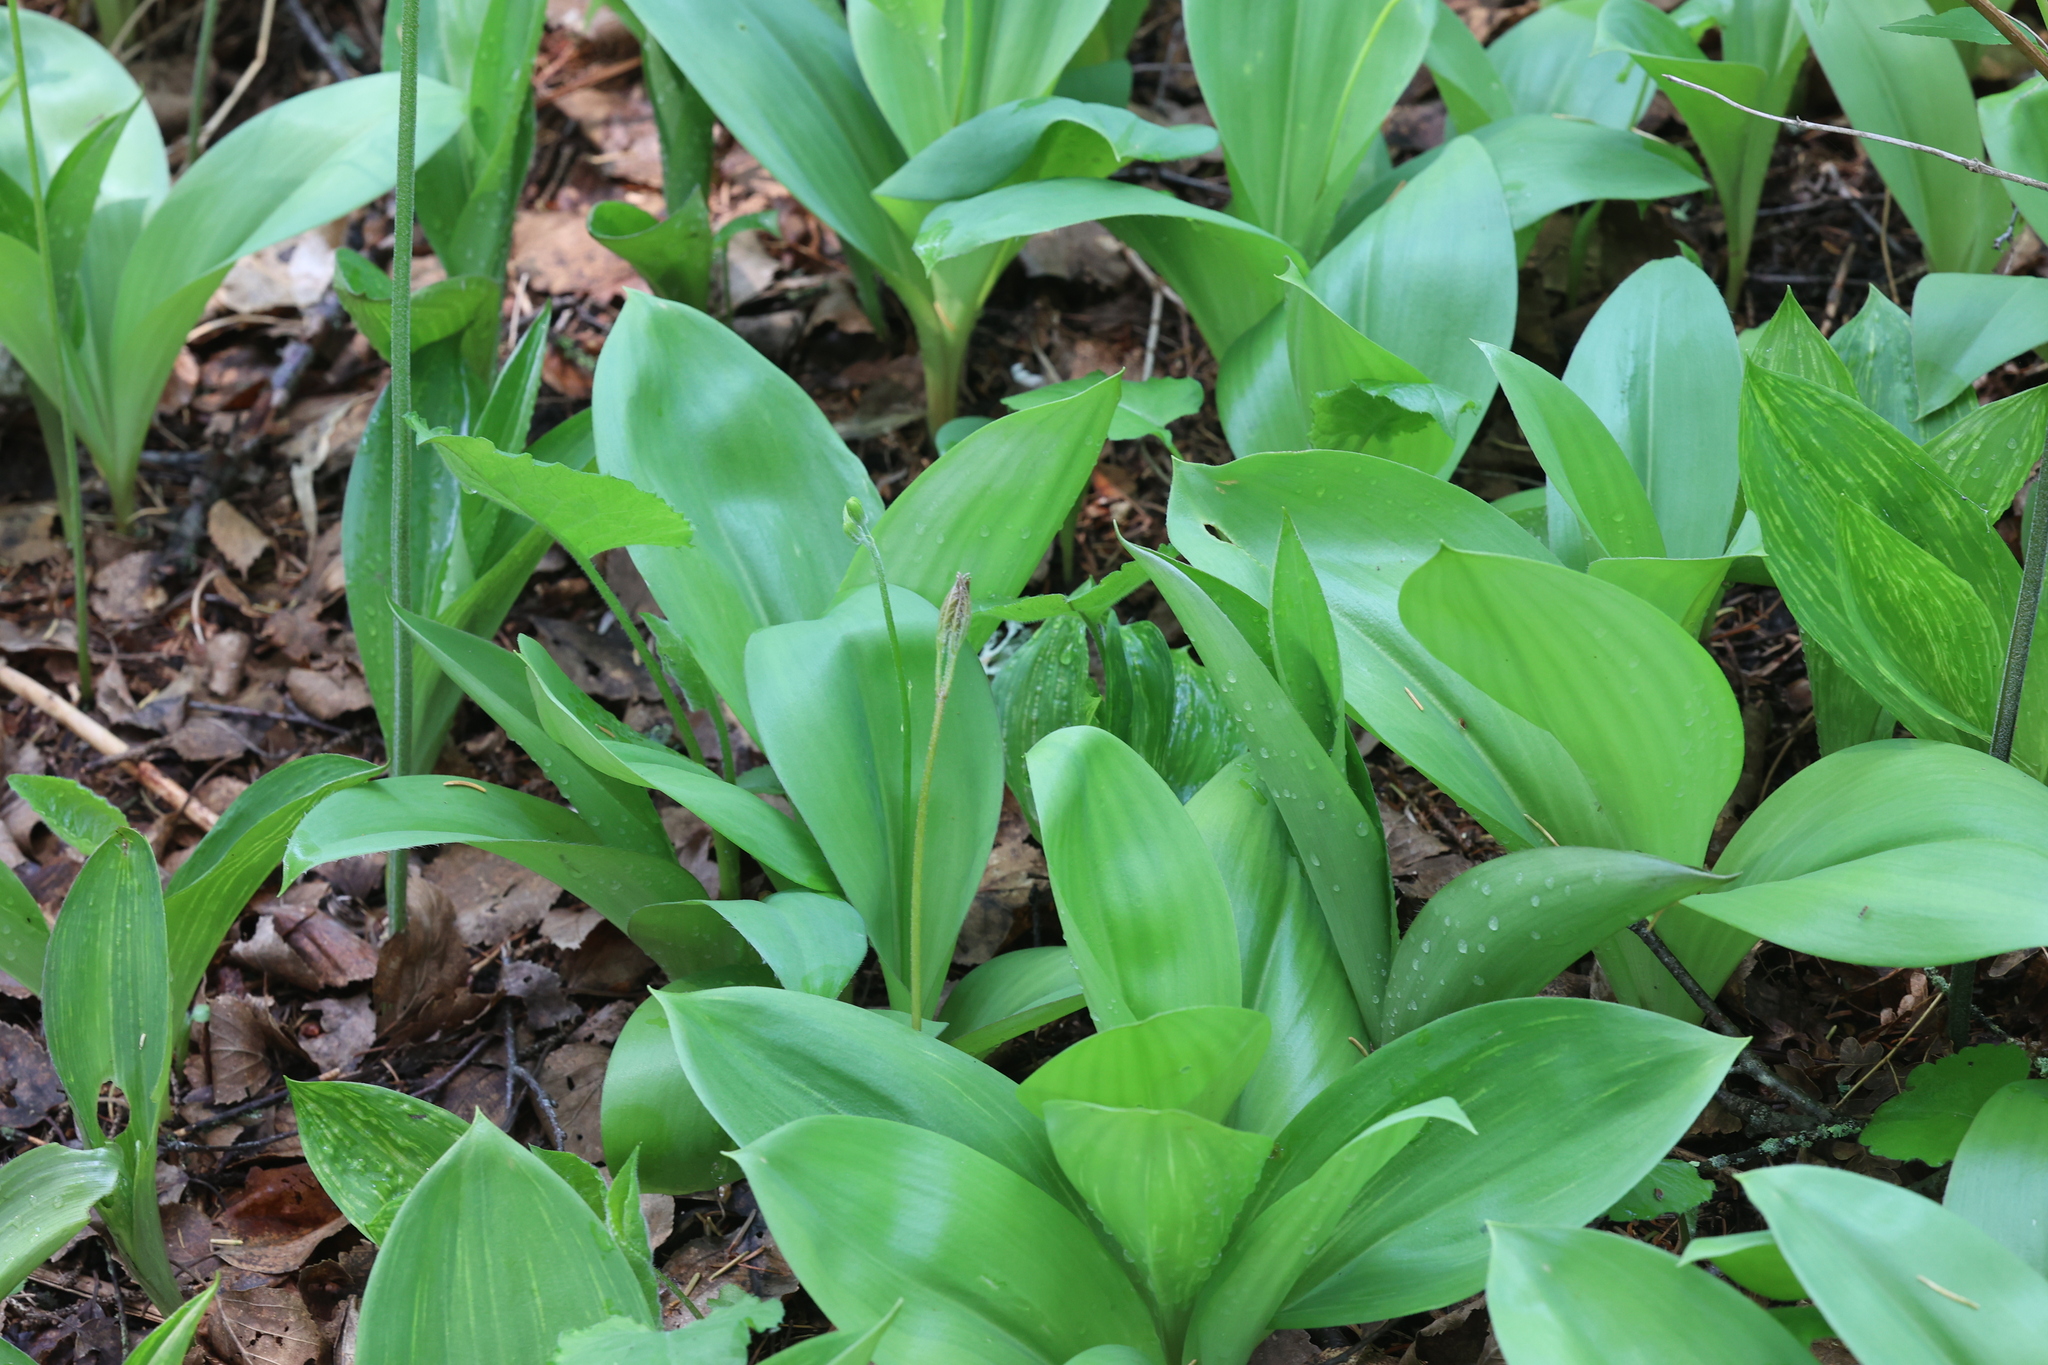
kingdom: Plantae
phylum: Tracheophyta
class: Liliopsida
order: Liliales
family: Liliaceae
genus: Clintonia
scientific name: Clintonia borealis
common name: Yellow clintonia
